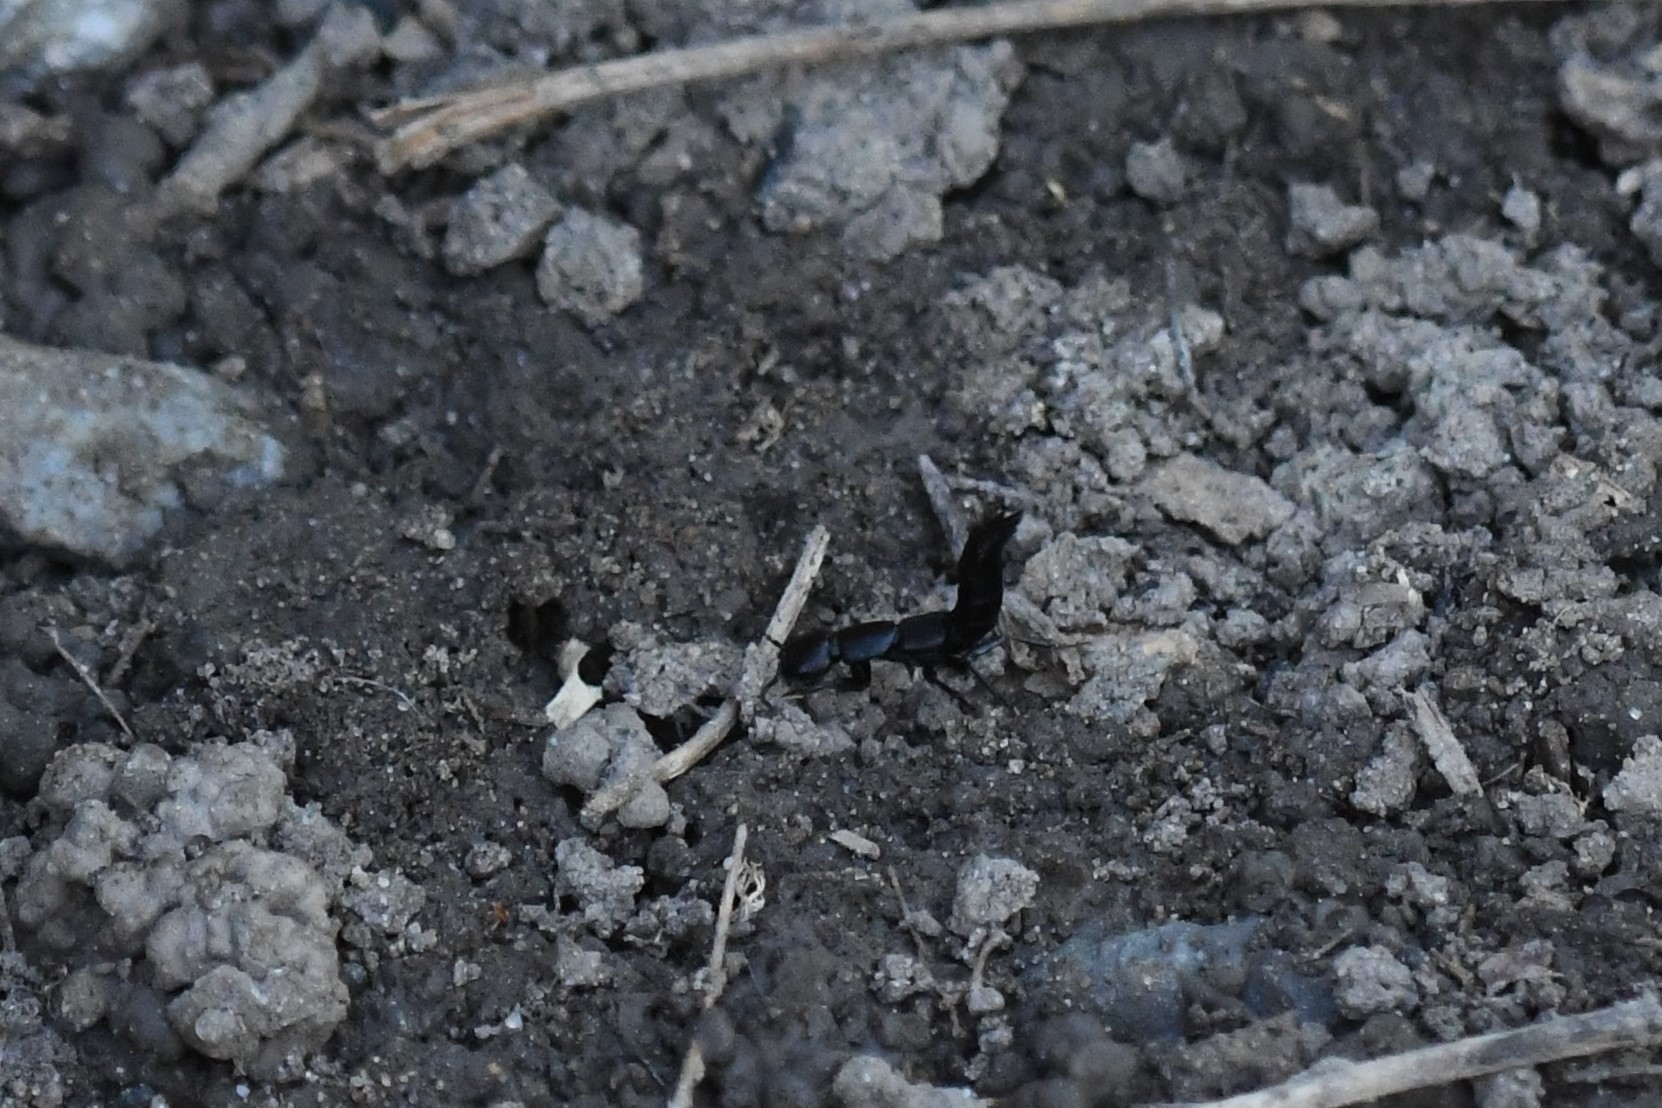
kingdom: Animalia
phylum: Arthropoda
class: Insecta
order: Coleoptera
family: Staphylinidae
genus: Ocypus
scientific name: Ocypus nitens
